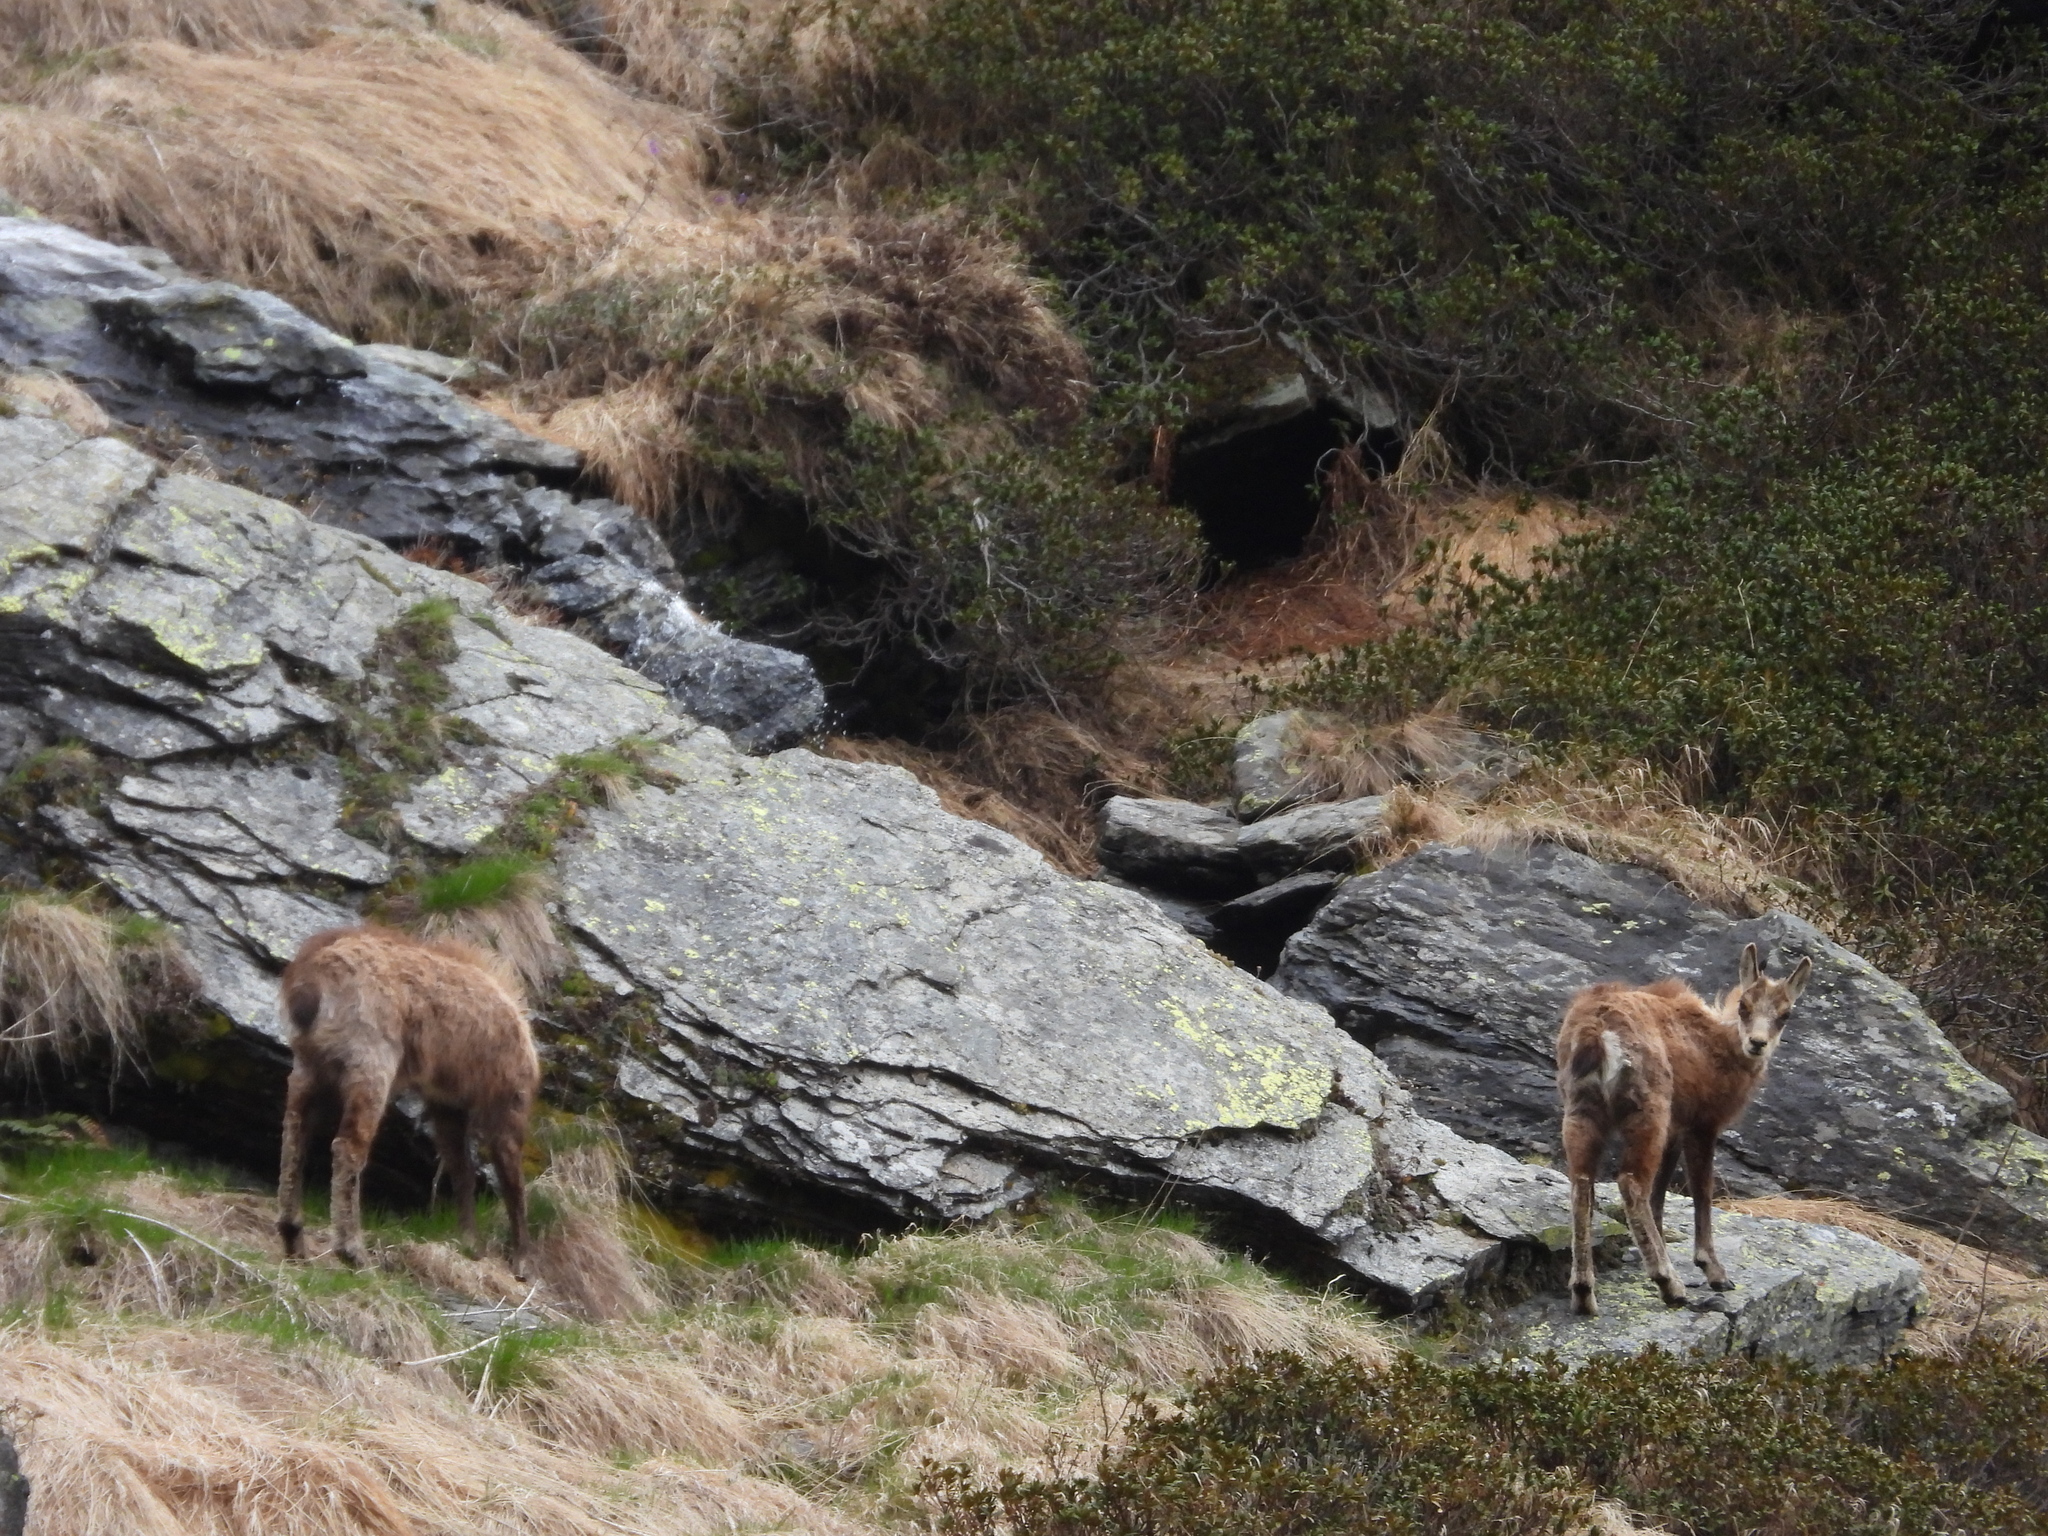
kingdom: Animalia
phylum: Chordata
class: Mammalia
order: Artiodactyla
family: Bovidae
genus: Rupicapra
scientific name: Rupicapra rupicapra
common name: Chamois
